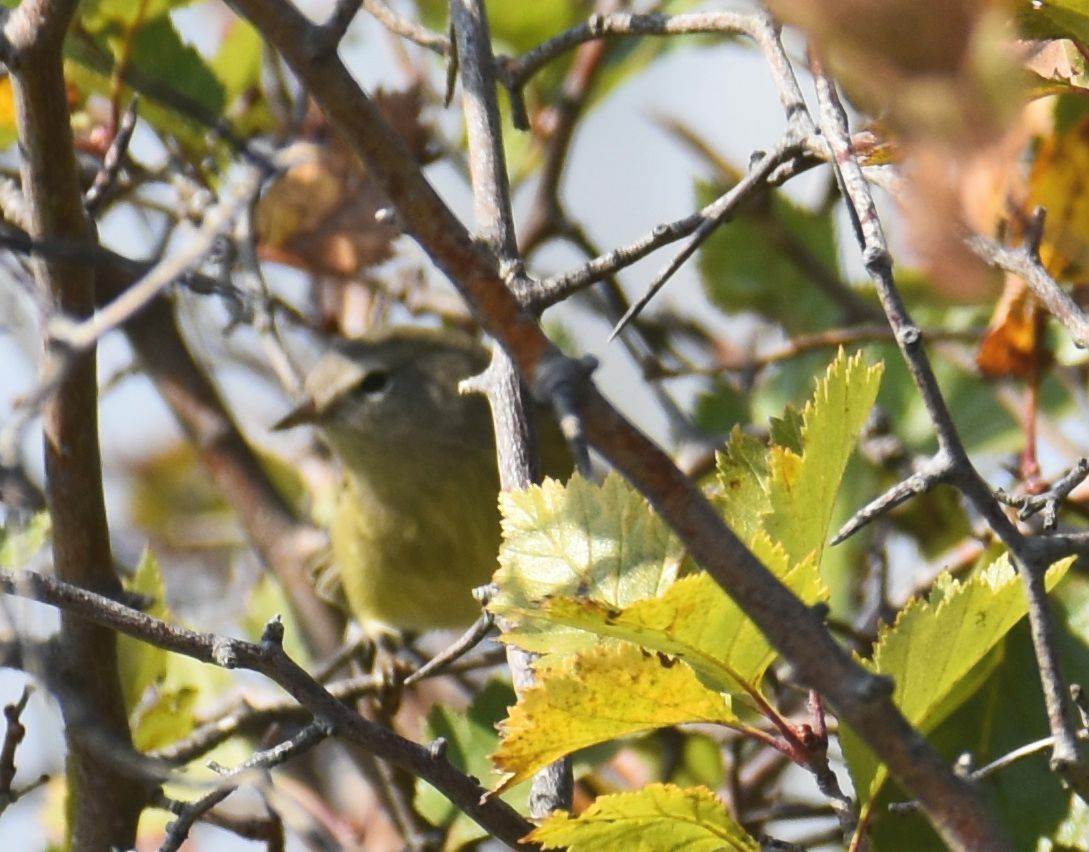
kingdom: Animalia
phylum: Chordata
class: Aves
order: Passeriformes
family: Parulidae
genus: Leiothlypis
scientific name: Leiothlypis celata
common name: Orange-crowned warbler
